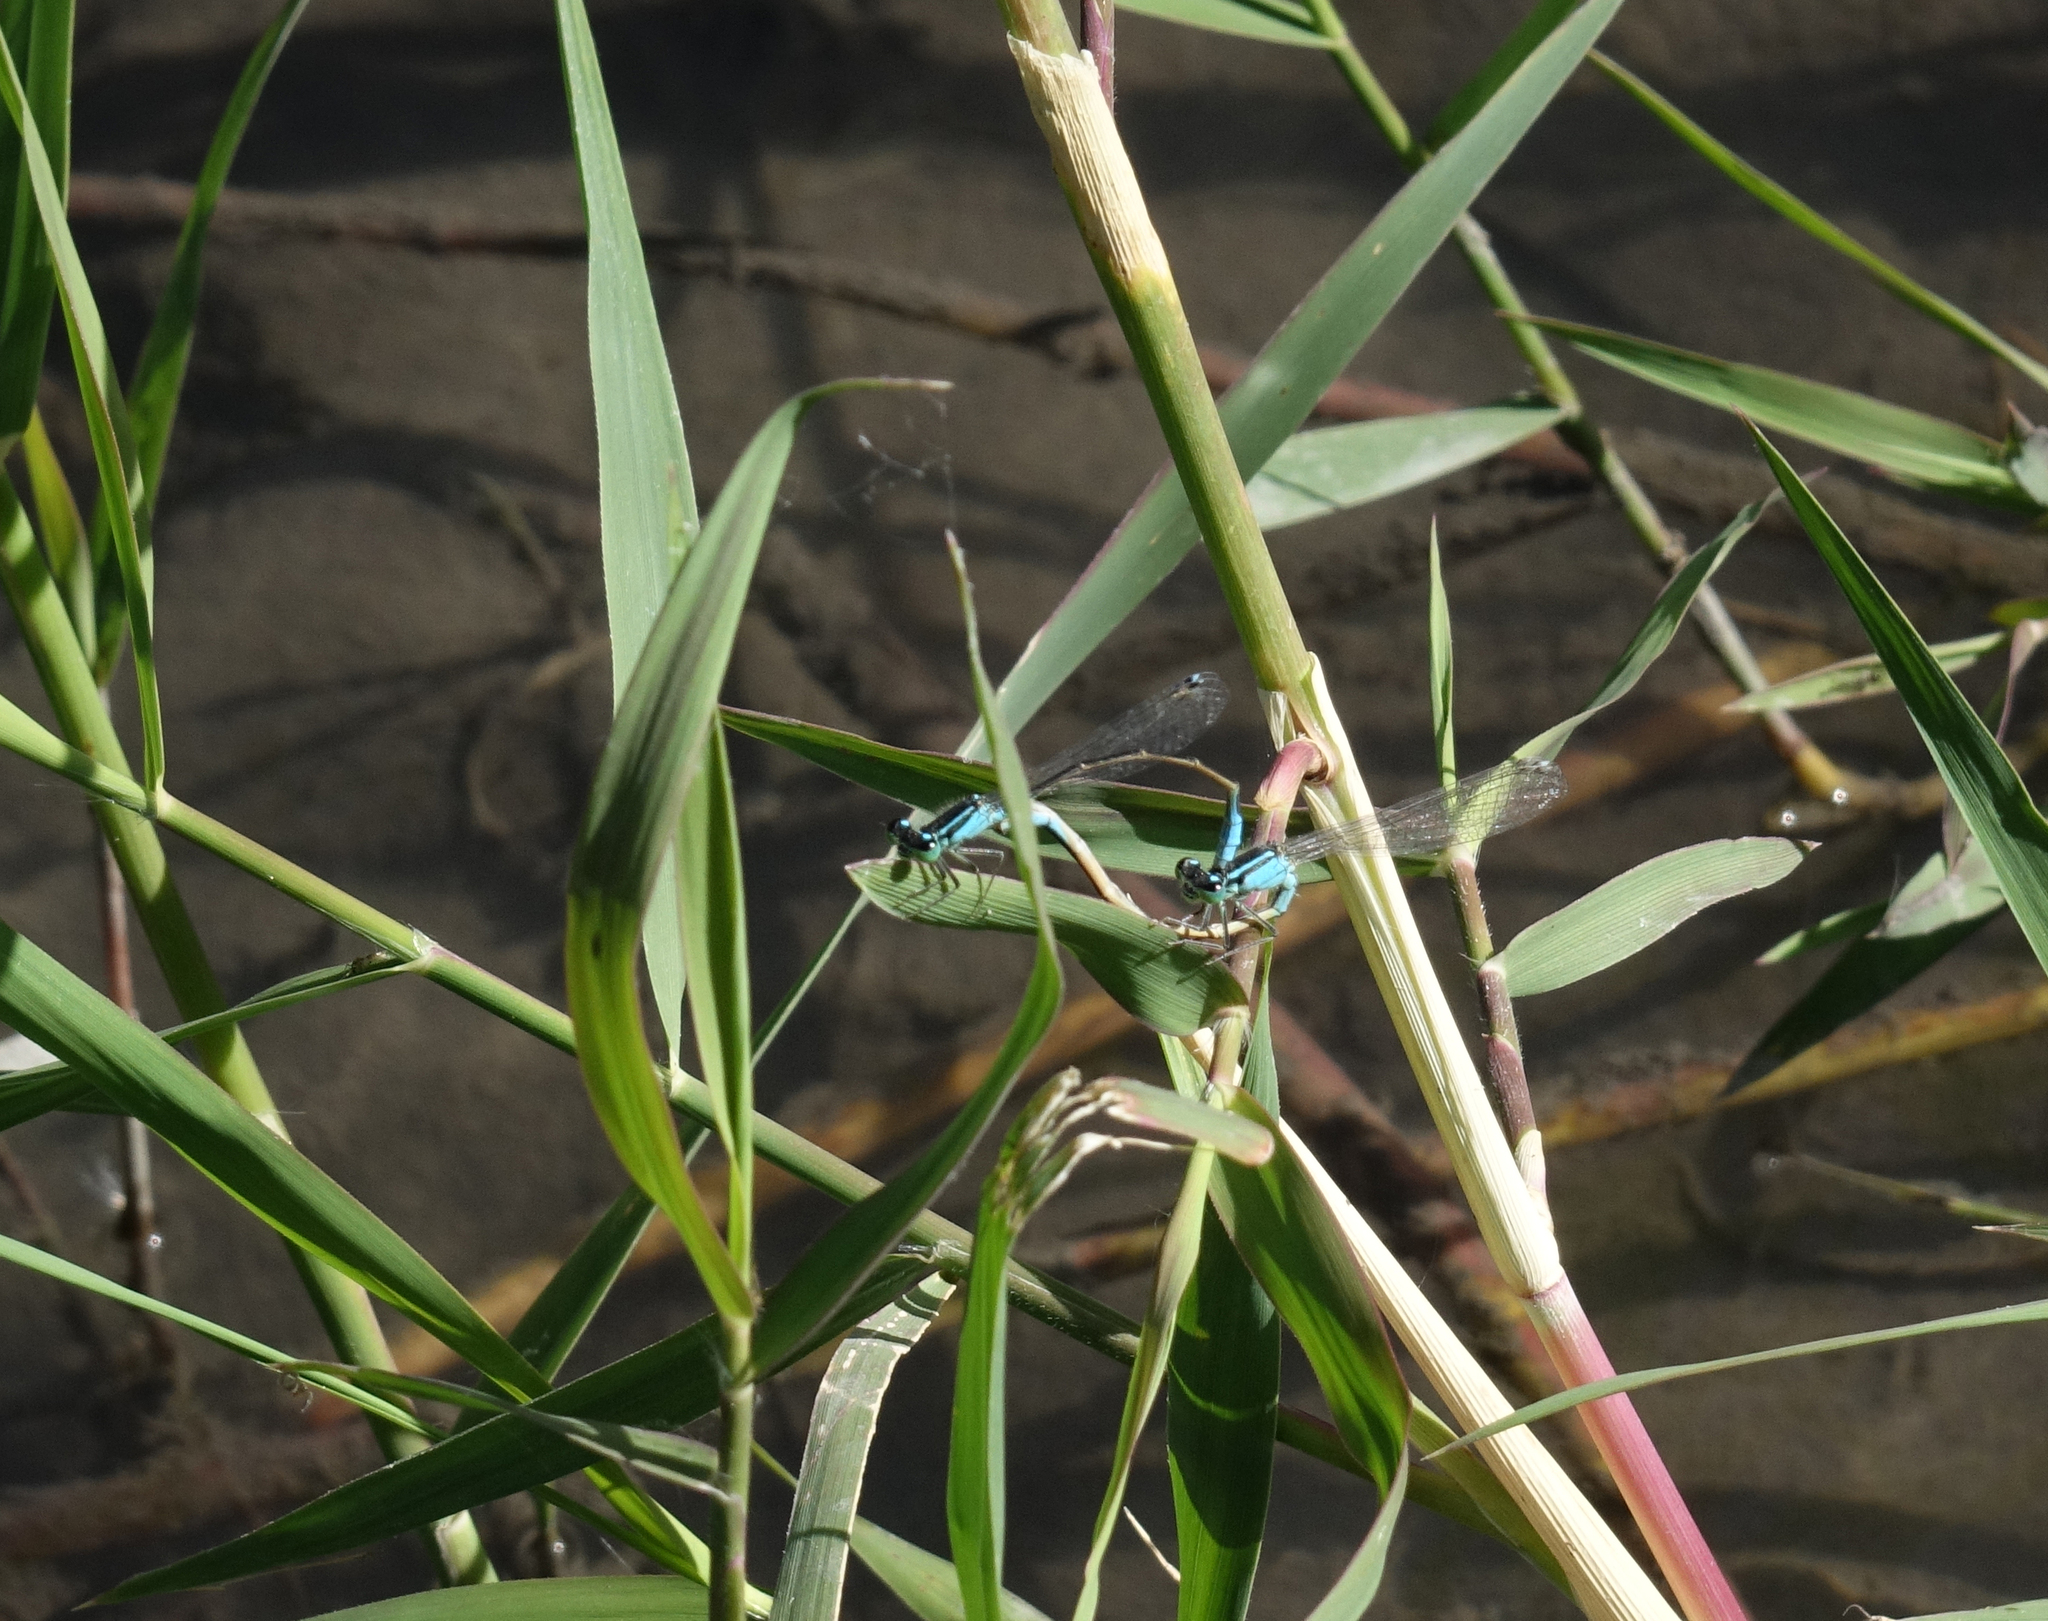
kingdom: Animalia
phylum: Arthropoda
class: Insecta
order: Odonata
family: Coenagrionidae
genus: Ischnura
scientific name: Ischnura elegans
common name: Blue-tailed damselfly
